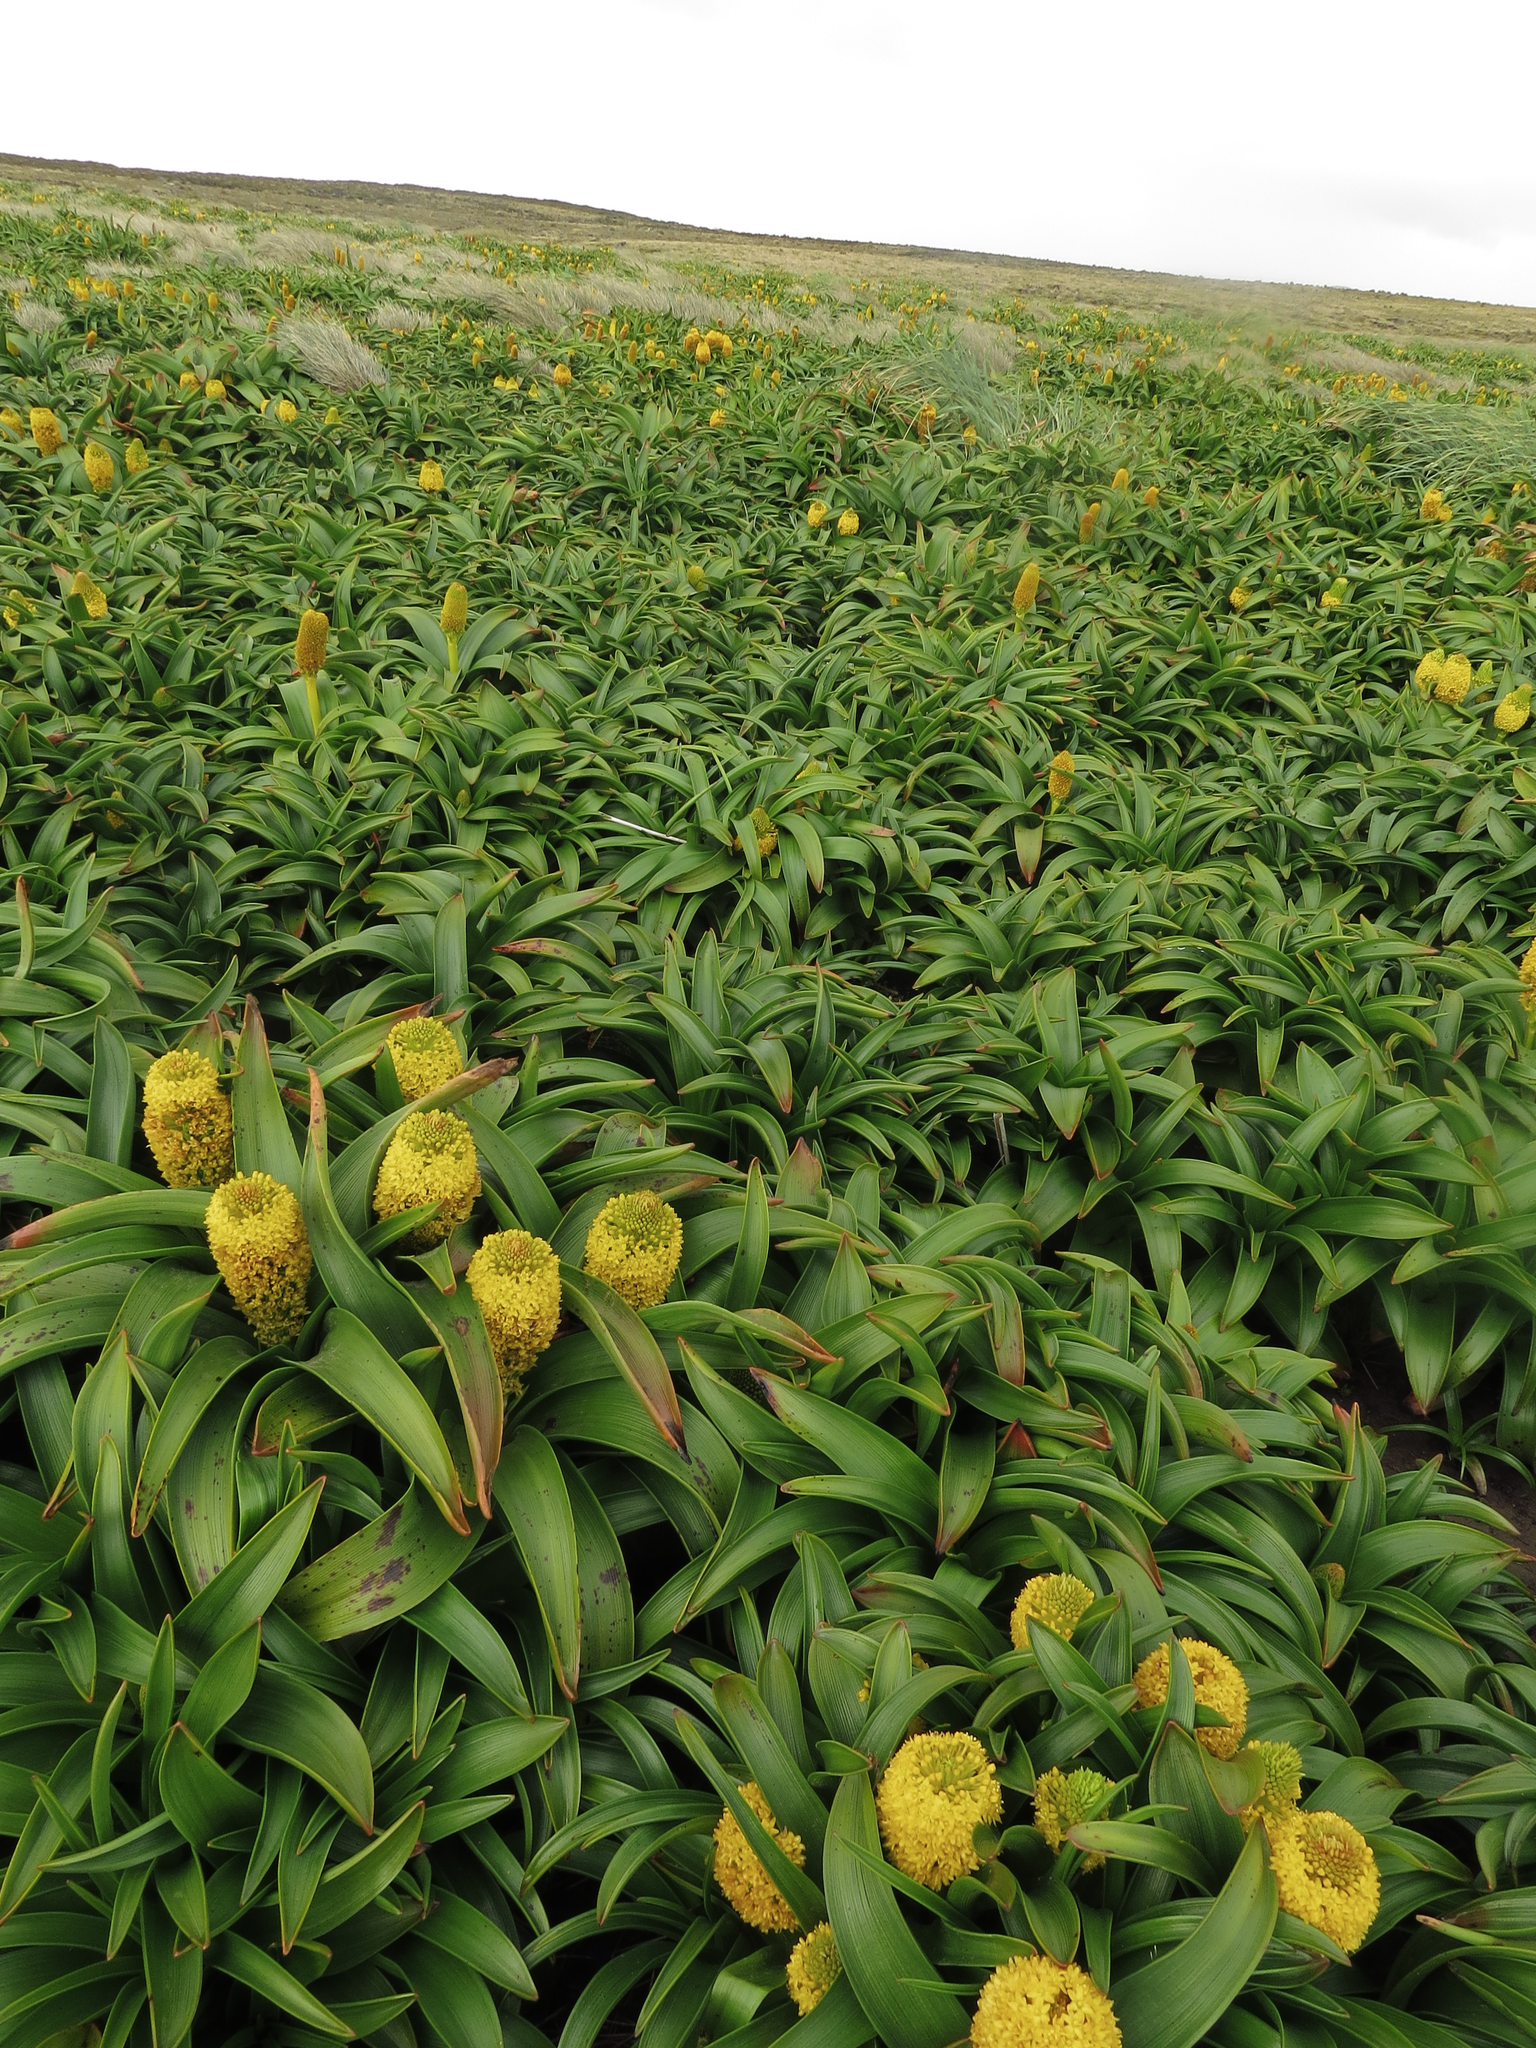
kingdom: Plantae
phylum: Tracheophyta
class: Liliopsida
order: Asparagales
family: Asphodelaceae
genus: Bulbinella
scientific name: Bulbinella rossii
